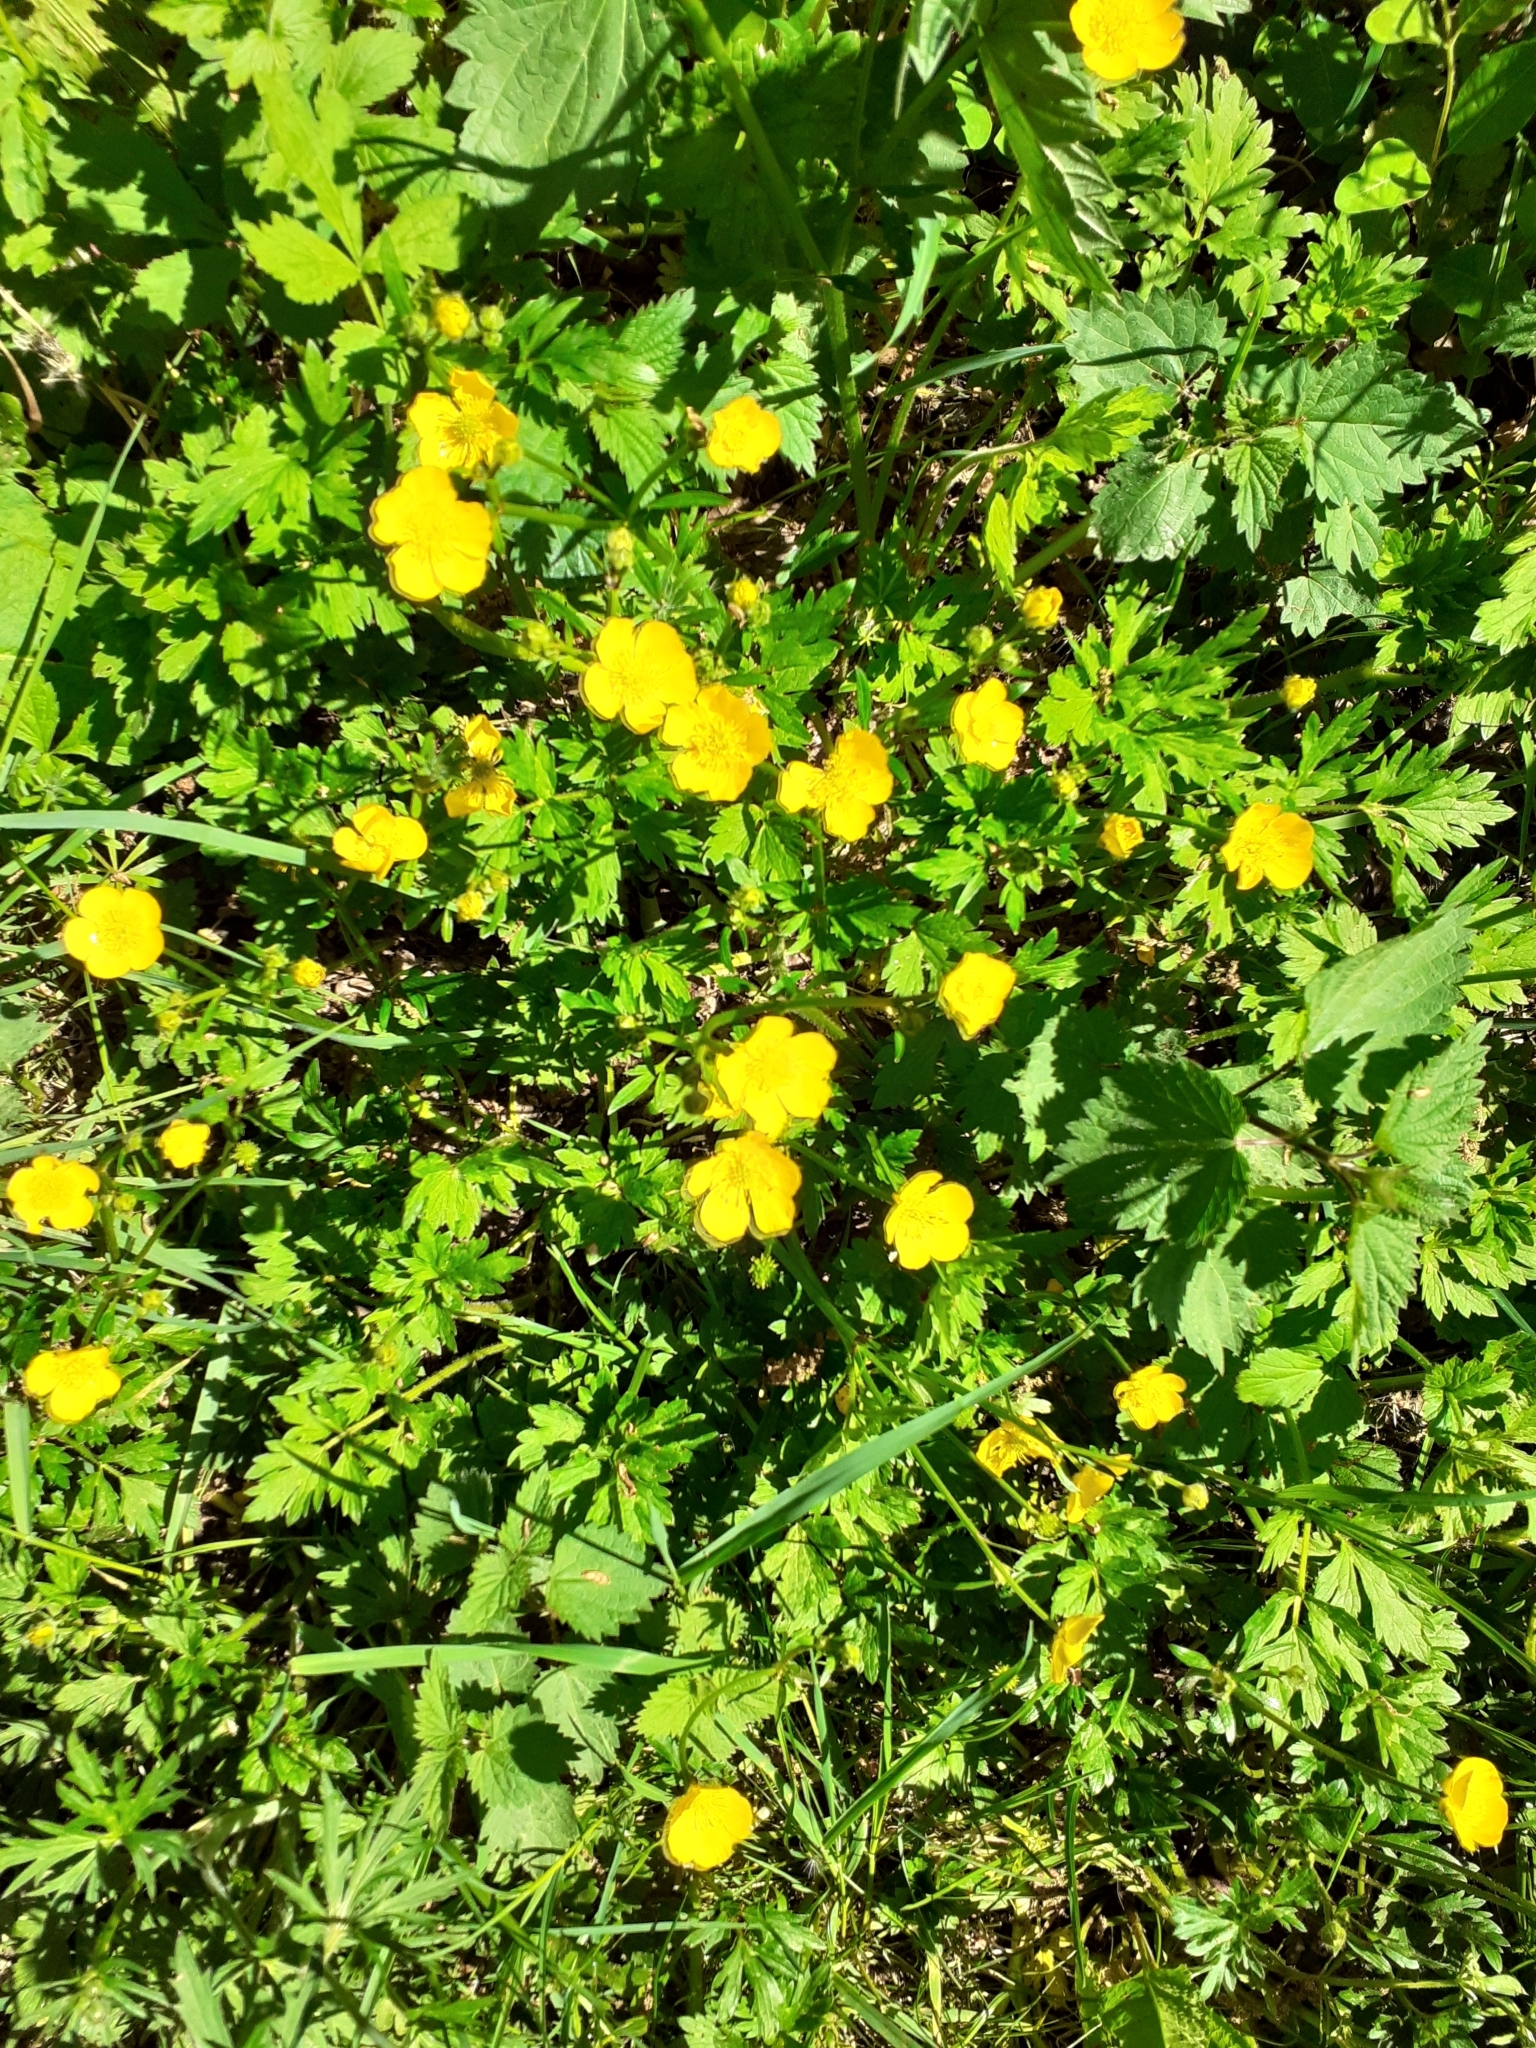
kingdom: Plantae
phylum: Tracheophyta
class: Magnoliopsida
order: Ranunculales
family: Ranunculaceae
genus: Ranunculus
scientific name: Ranunculus repens
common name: Creeping buttercup
